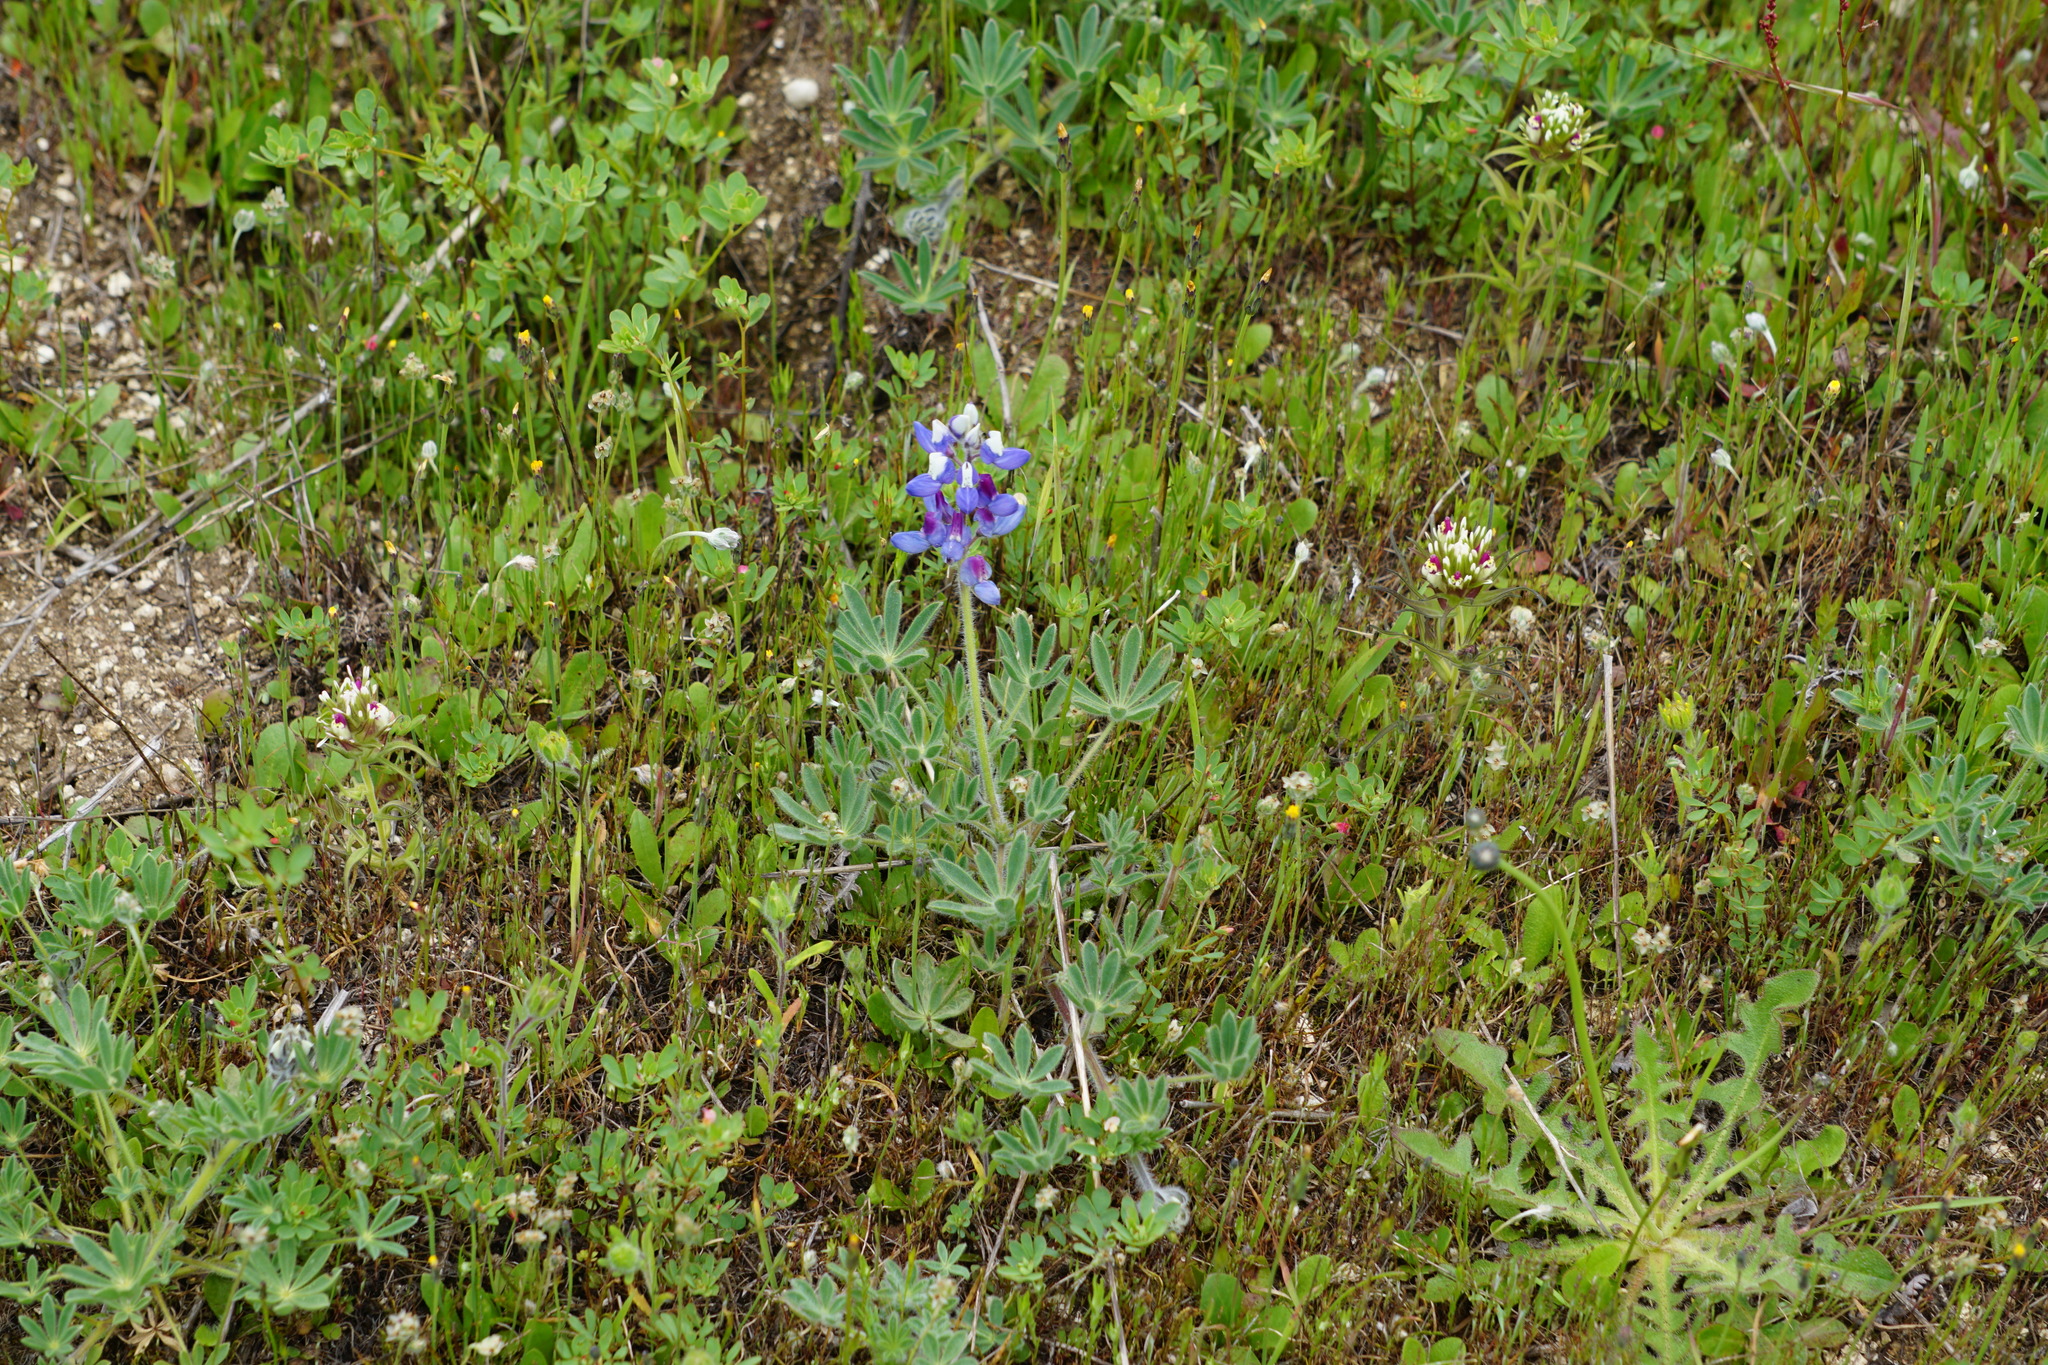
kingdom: Plantae
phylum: Tracheophyta
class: Magnoliopsida
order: Fabales
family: Fabaceae
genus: Lupinus
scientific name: Lupinus bicolor
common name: Miniature lupine
